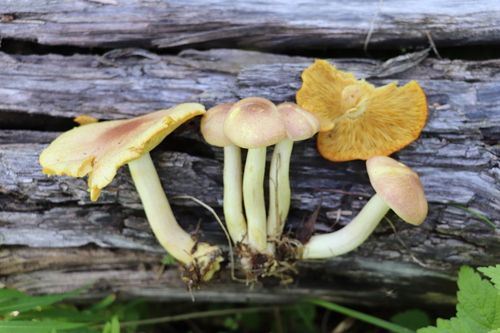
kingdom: Fungi
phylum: Basidiomycota
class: Agaricomycetes
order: Agaricales
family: Tricholomataceae
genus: Tricholomopsis
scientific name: Tricholomopsis rutilans
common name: Plums and custard
